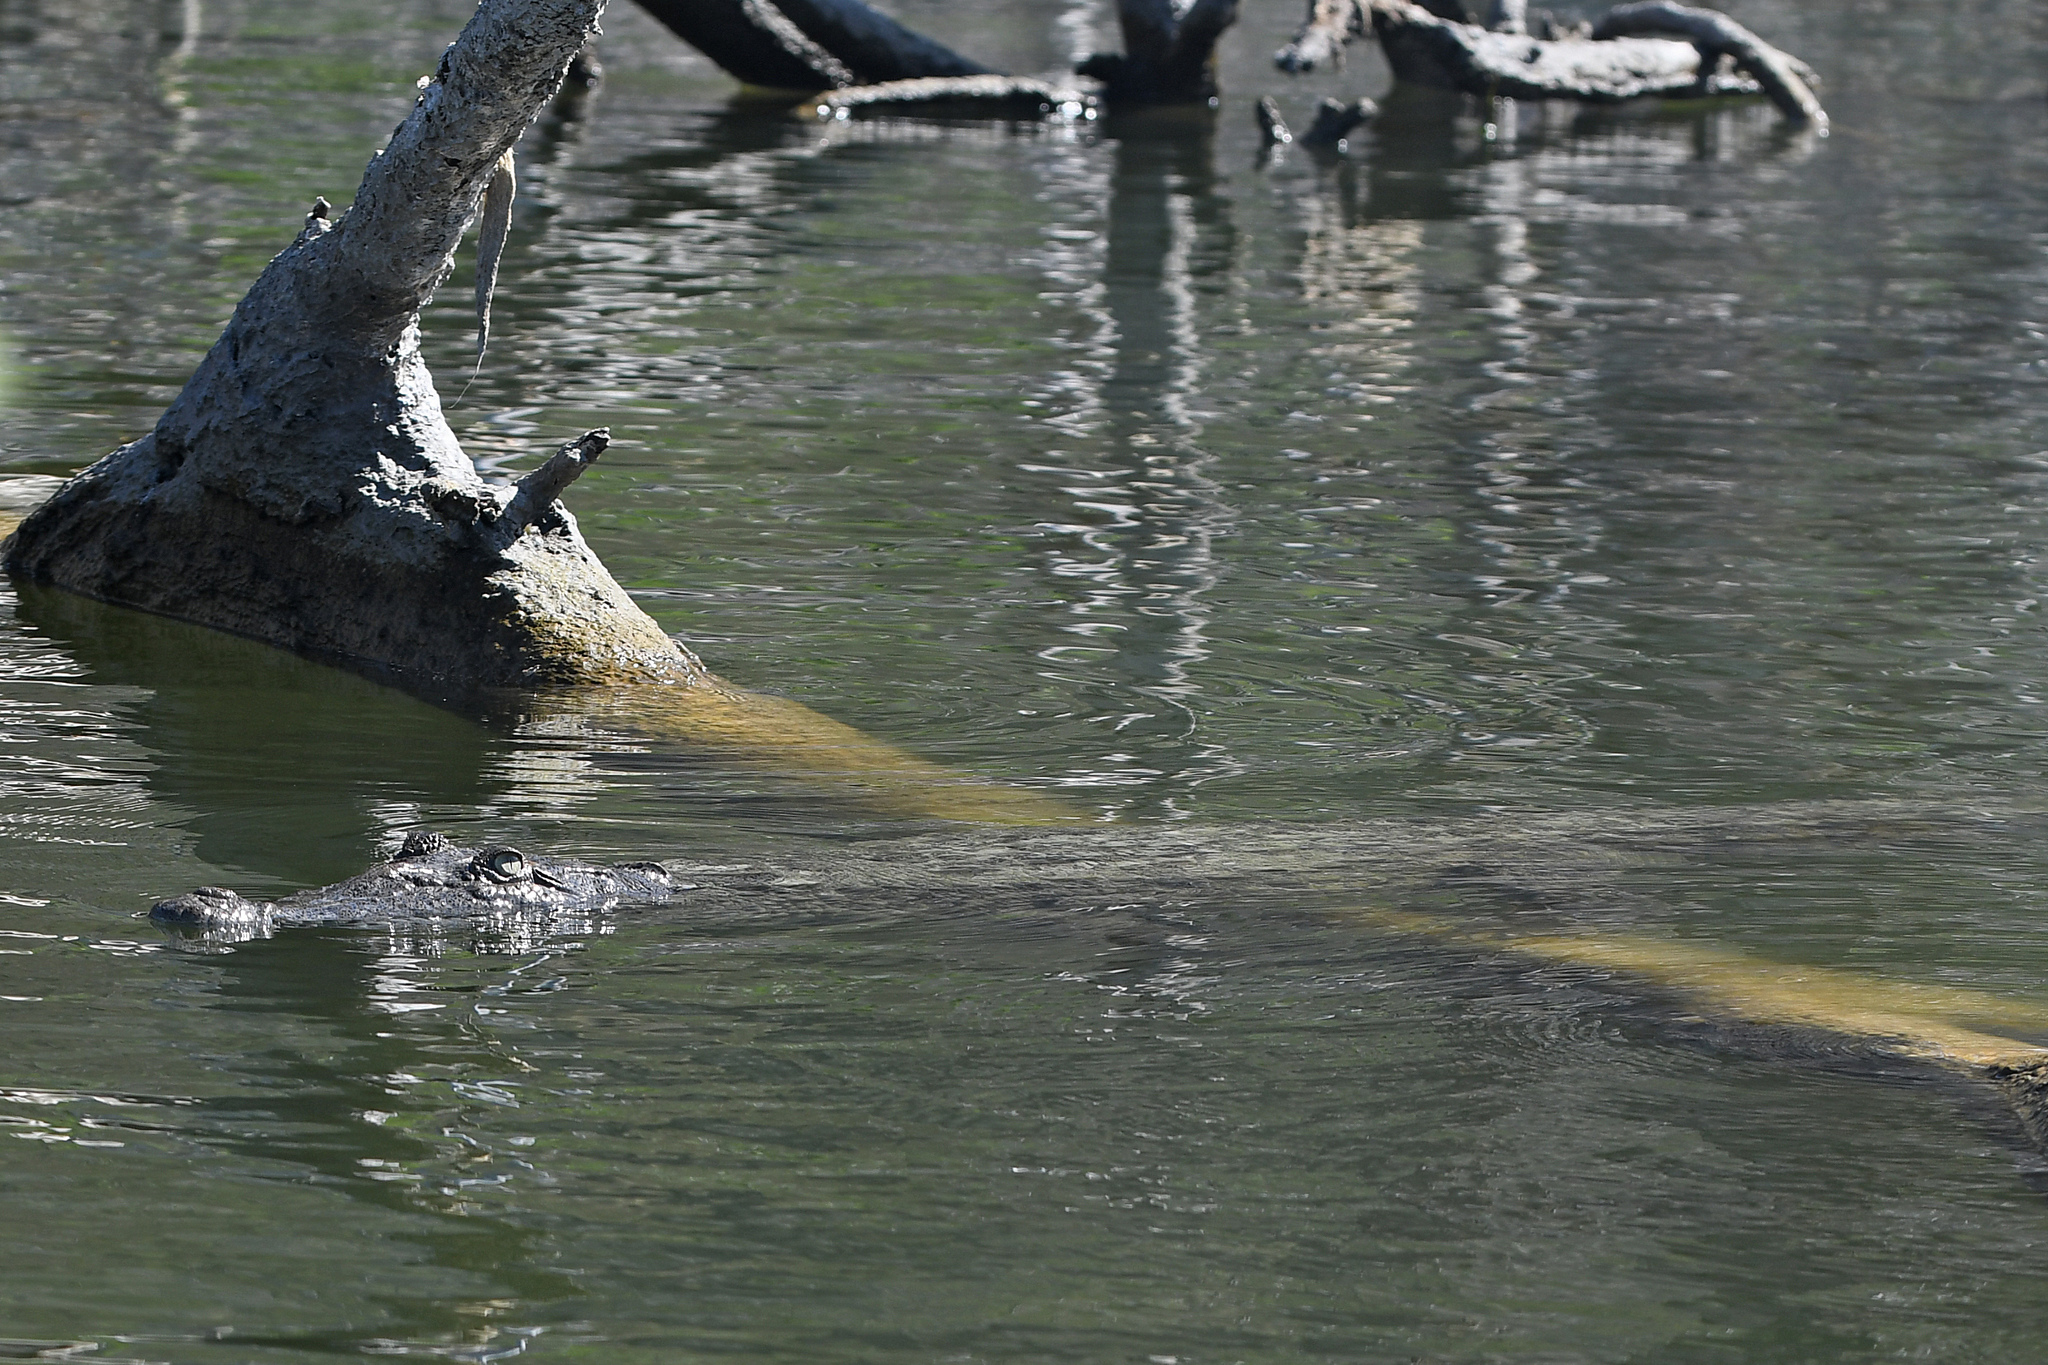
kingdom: Animalia
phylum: Chordata
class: Crocodylia
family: Crocodylidae
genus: Crocodylus
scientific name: Crocodylus acutus
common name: American crocodile
